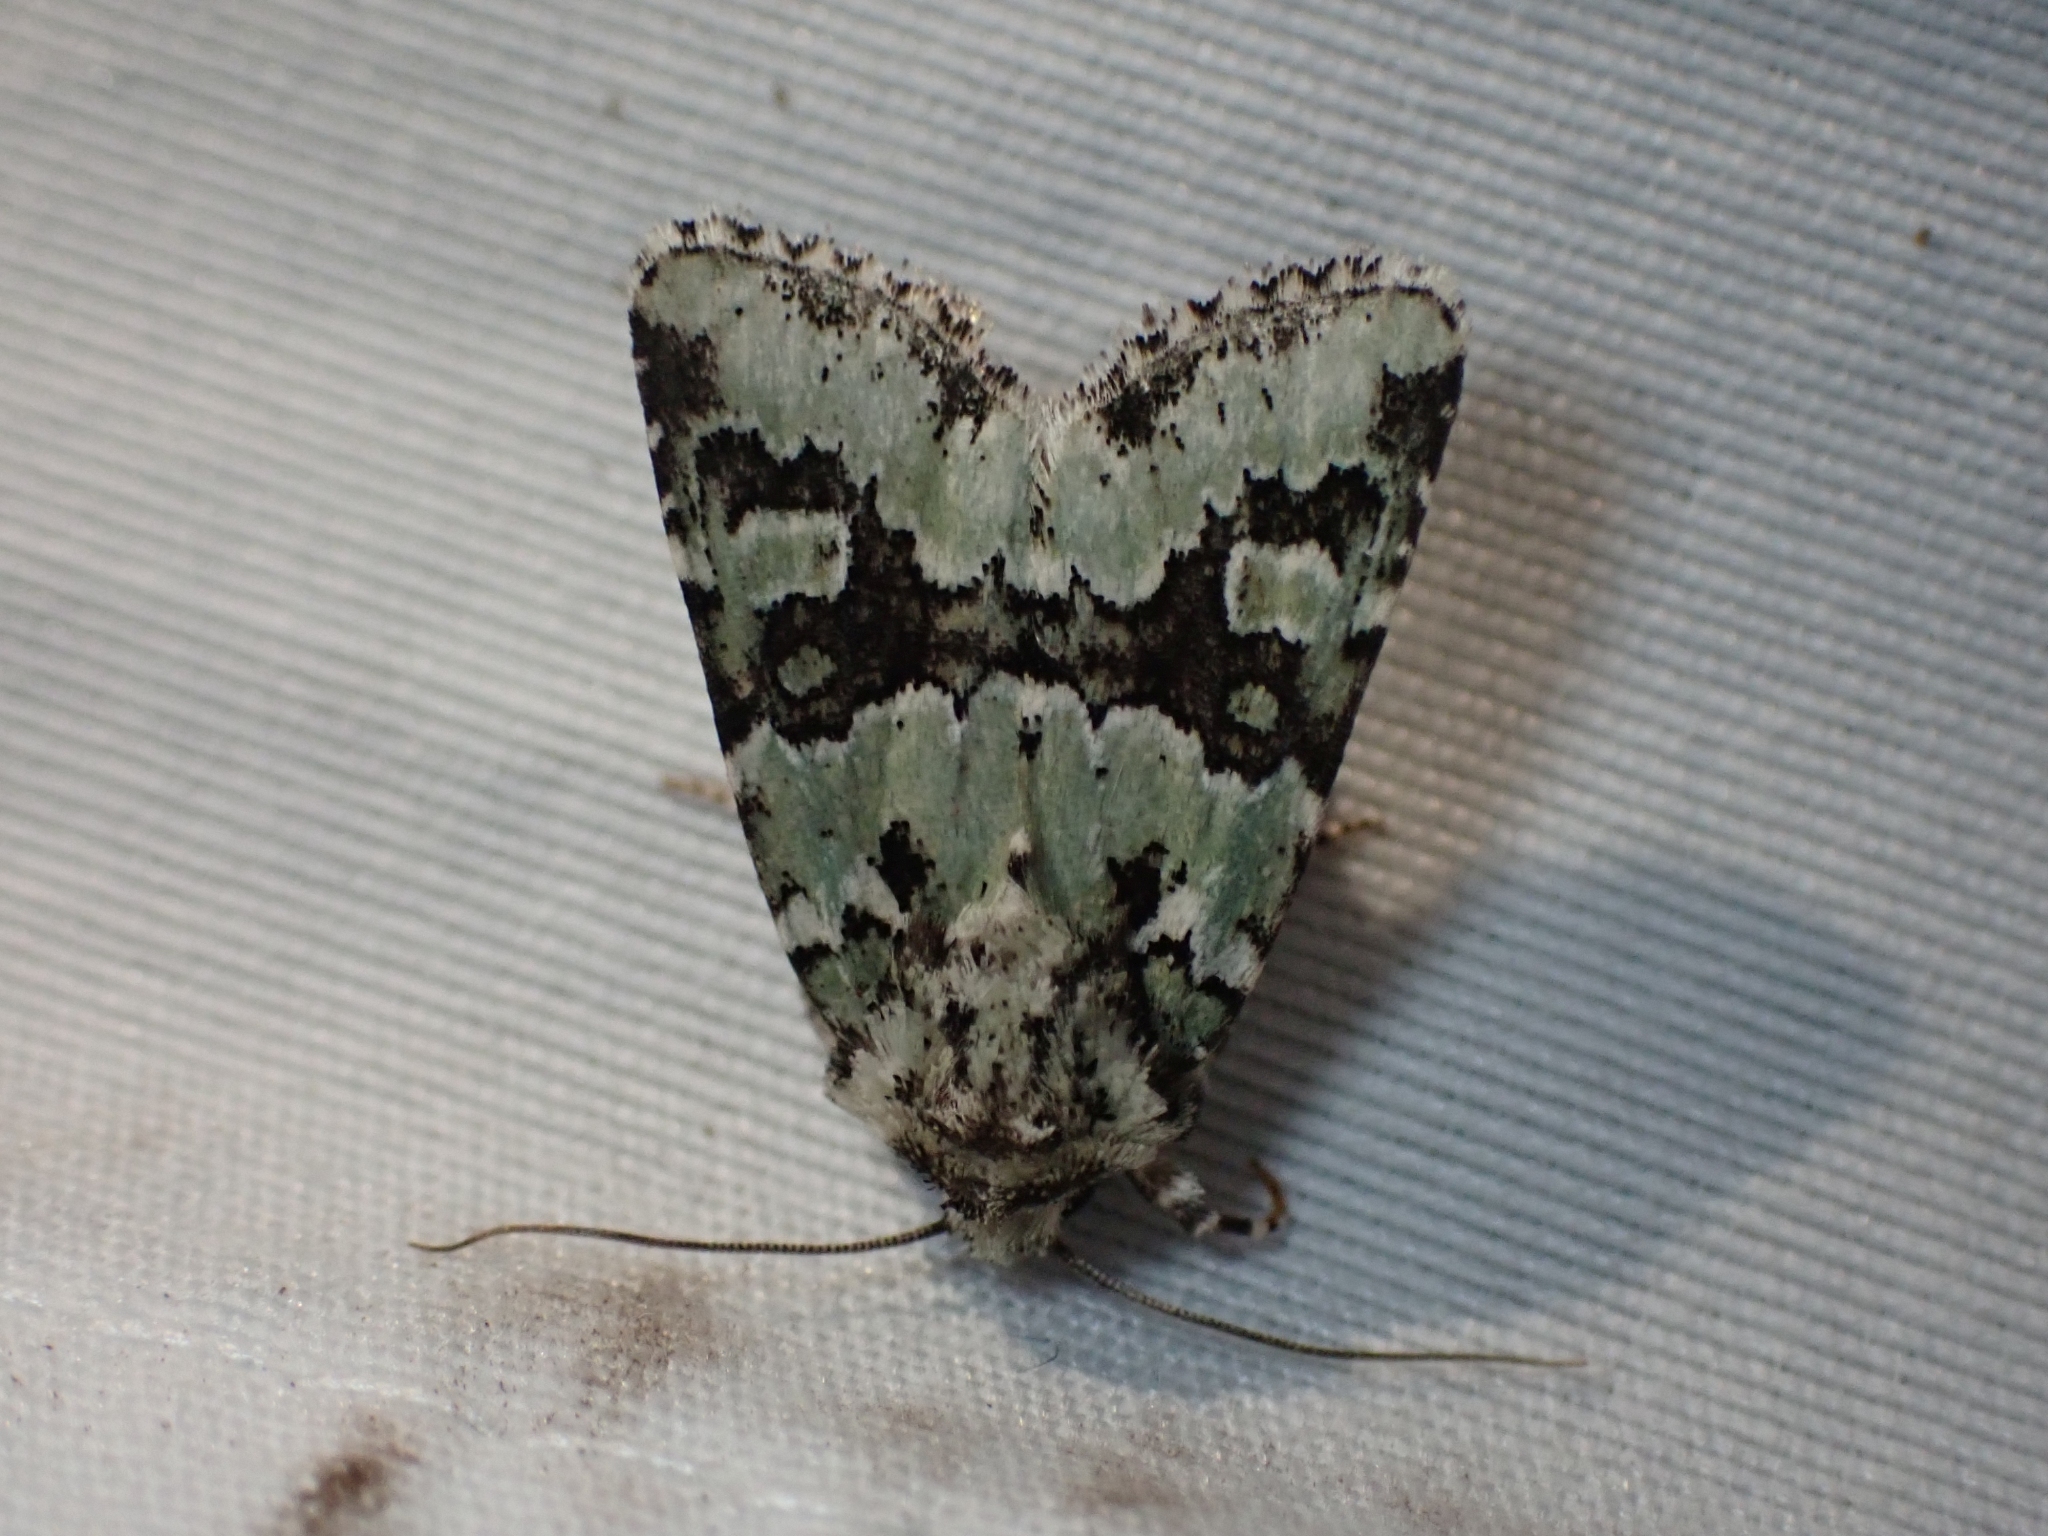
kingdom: Animalia
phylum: Arthropoda
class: Insecta
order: Lepidoptera
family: Noctuidae
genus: Lacinipolia
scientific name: Lacinipolia strigicollis
